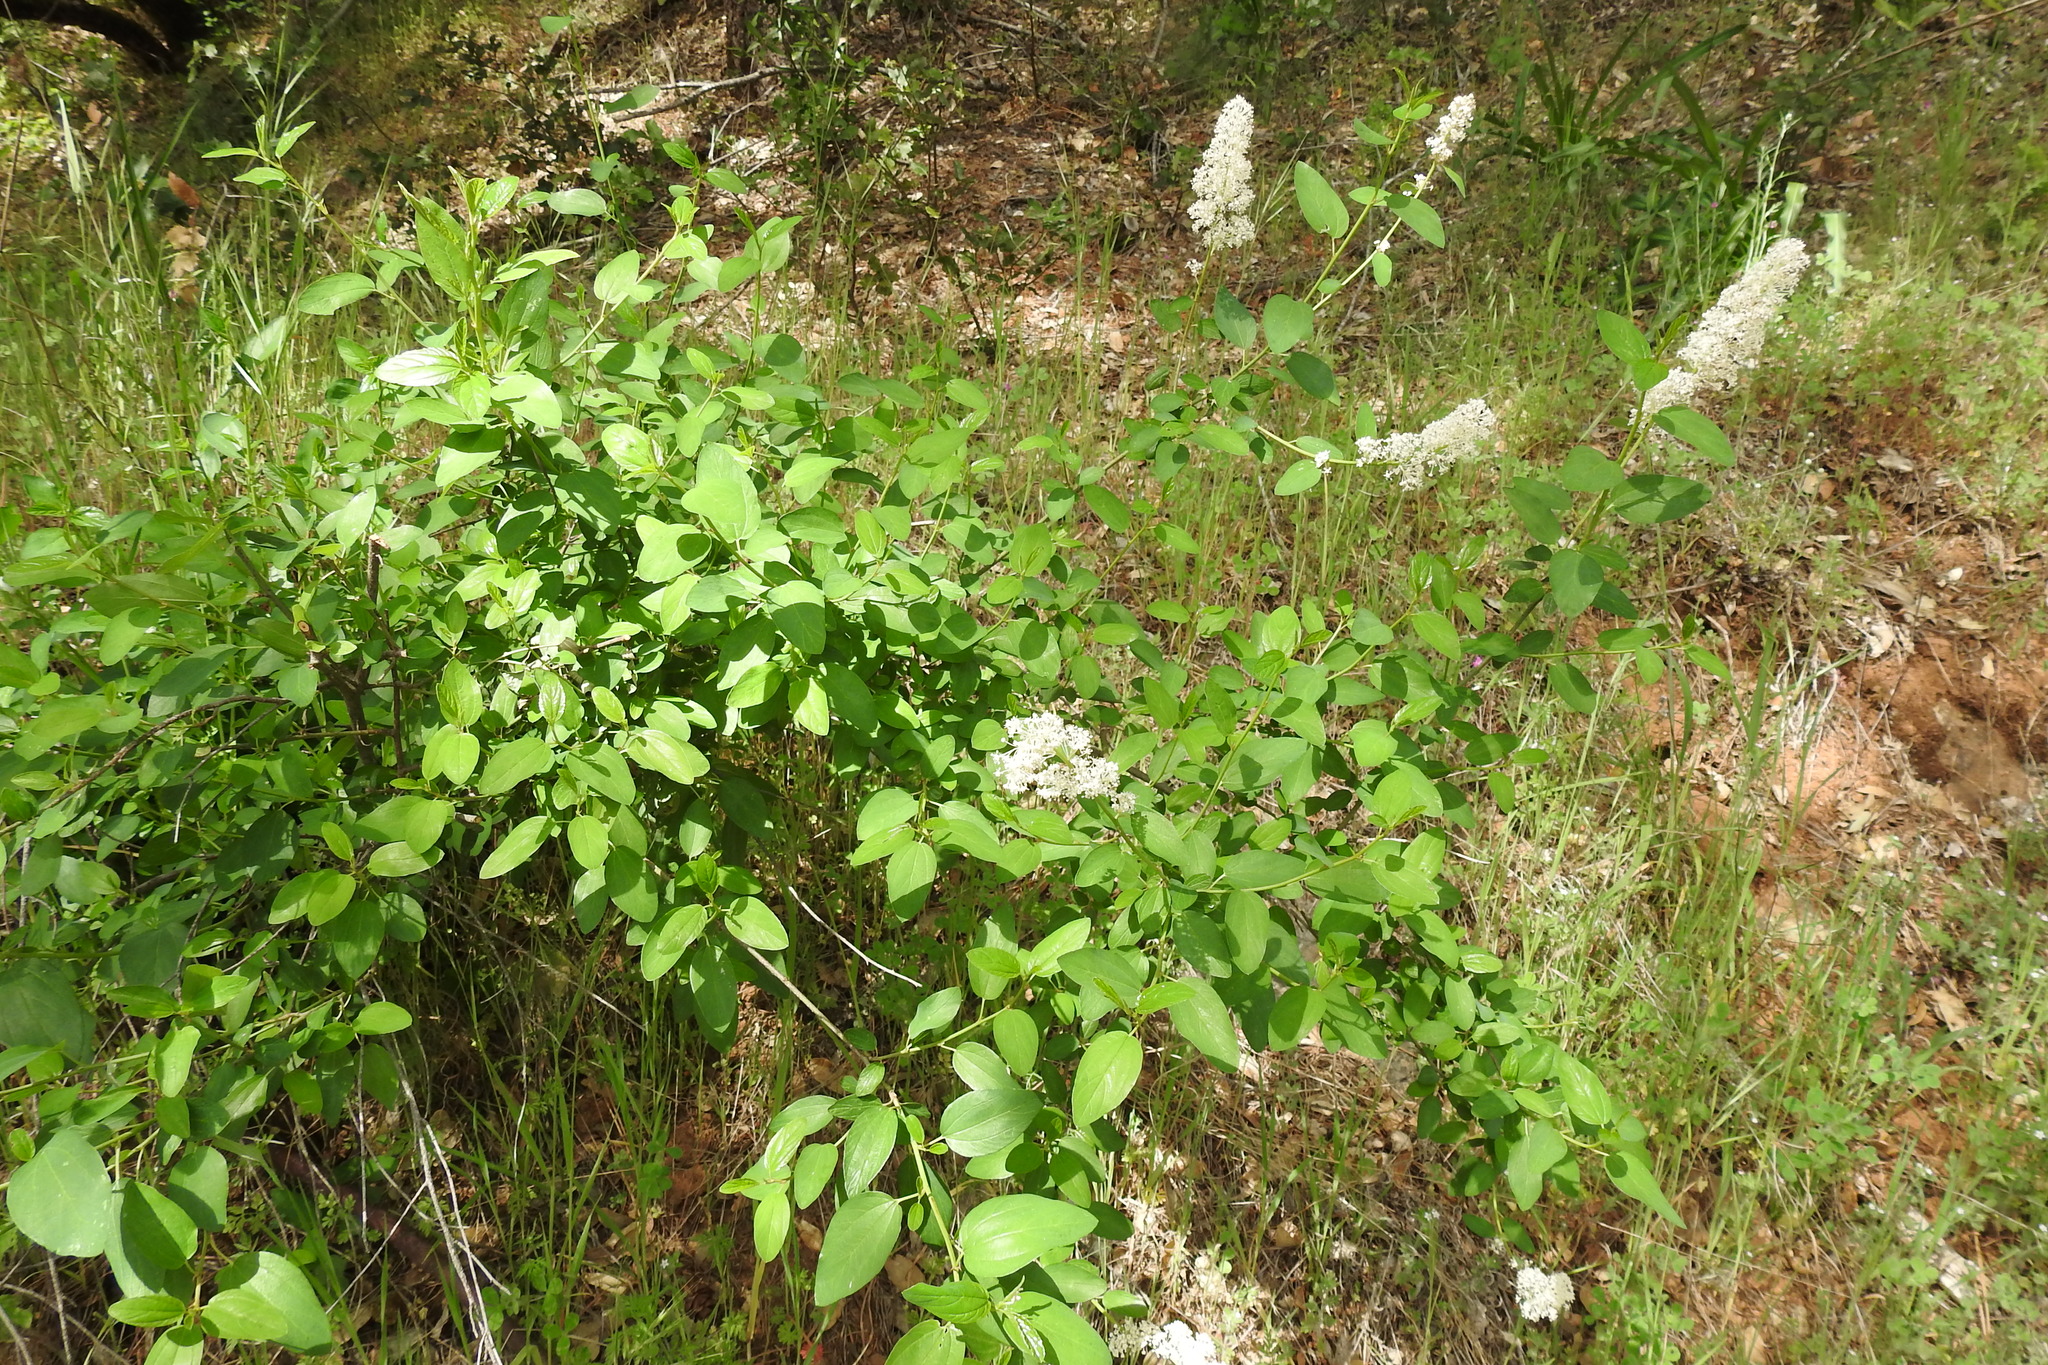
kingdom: Plantae
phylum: Tracheophyta
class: Magnoliopsida
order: Rosales
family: Rhamnaceae
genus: Ceanothus
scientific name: Ceanothus integerrimus
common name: Deerbrush ceanothus
